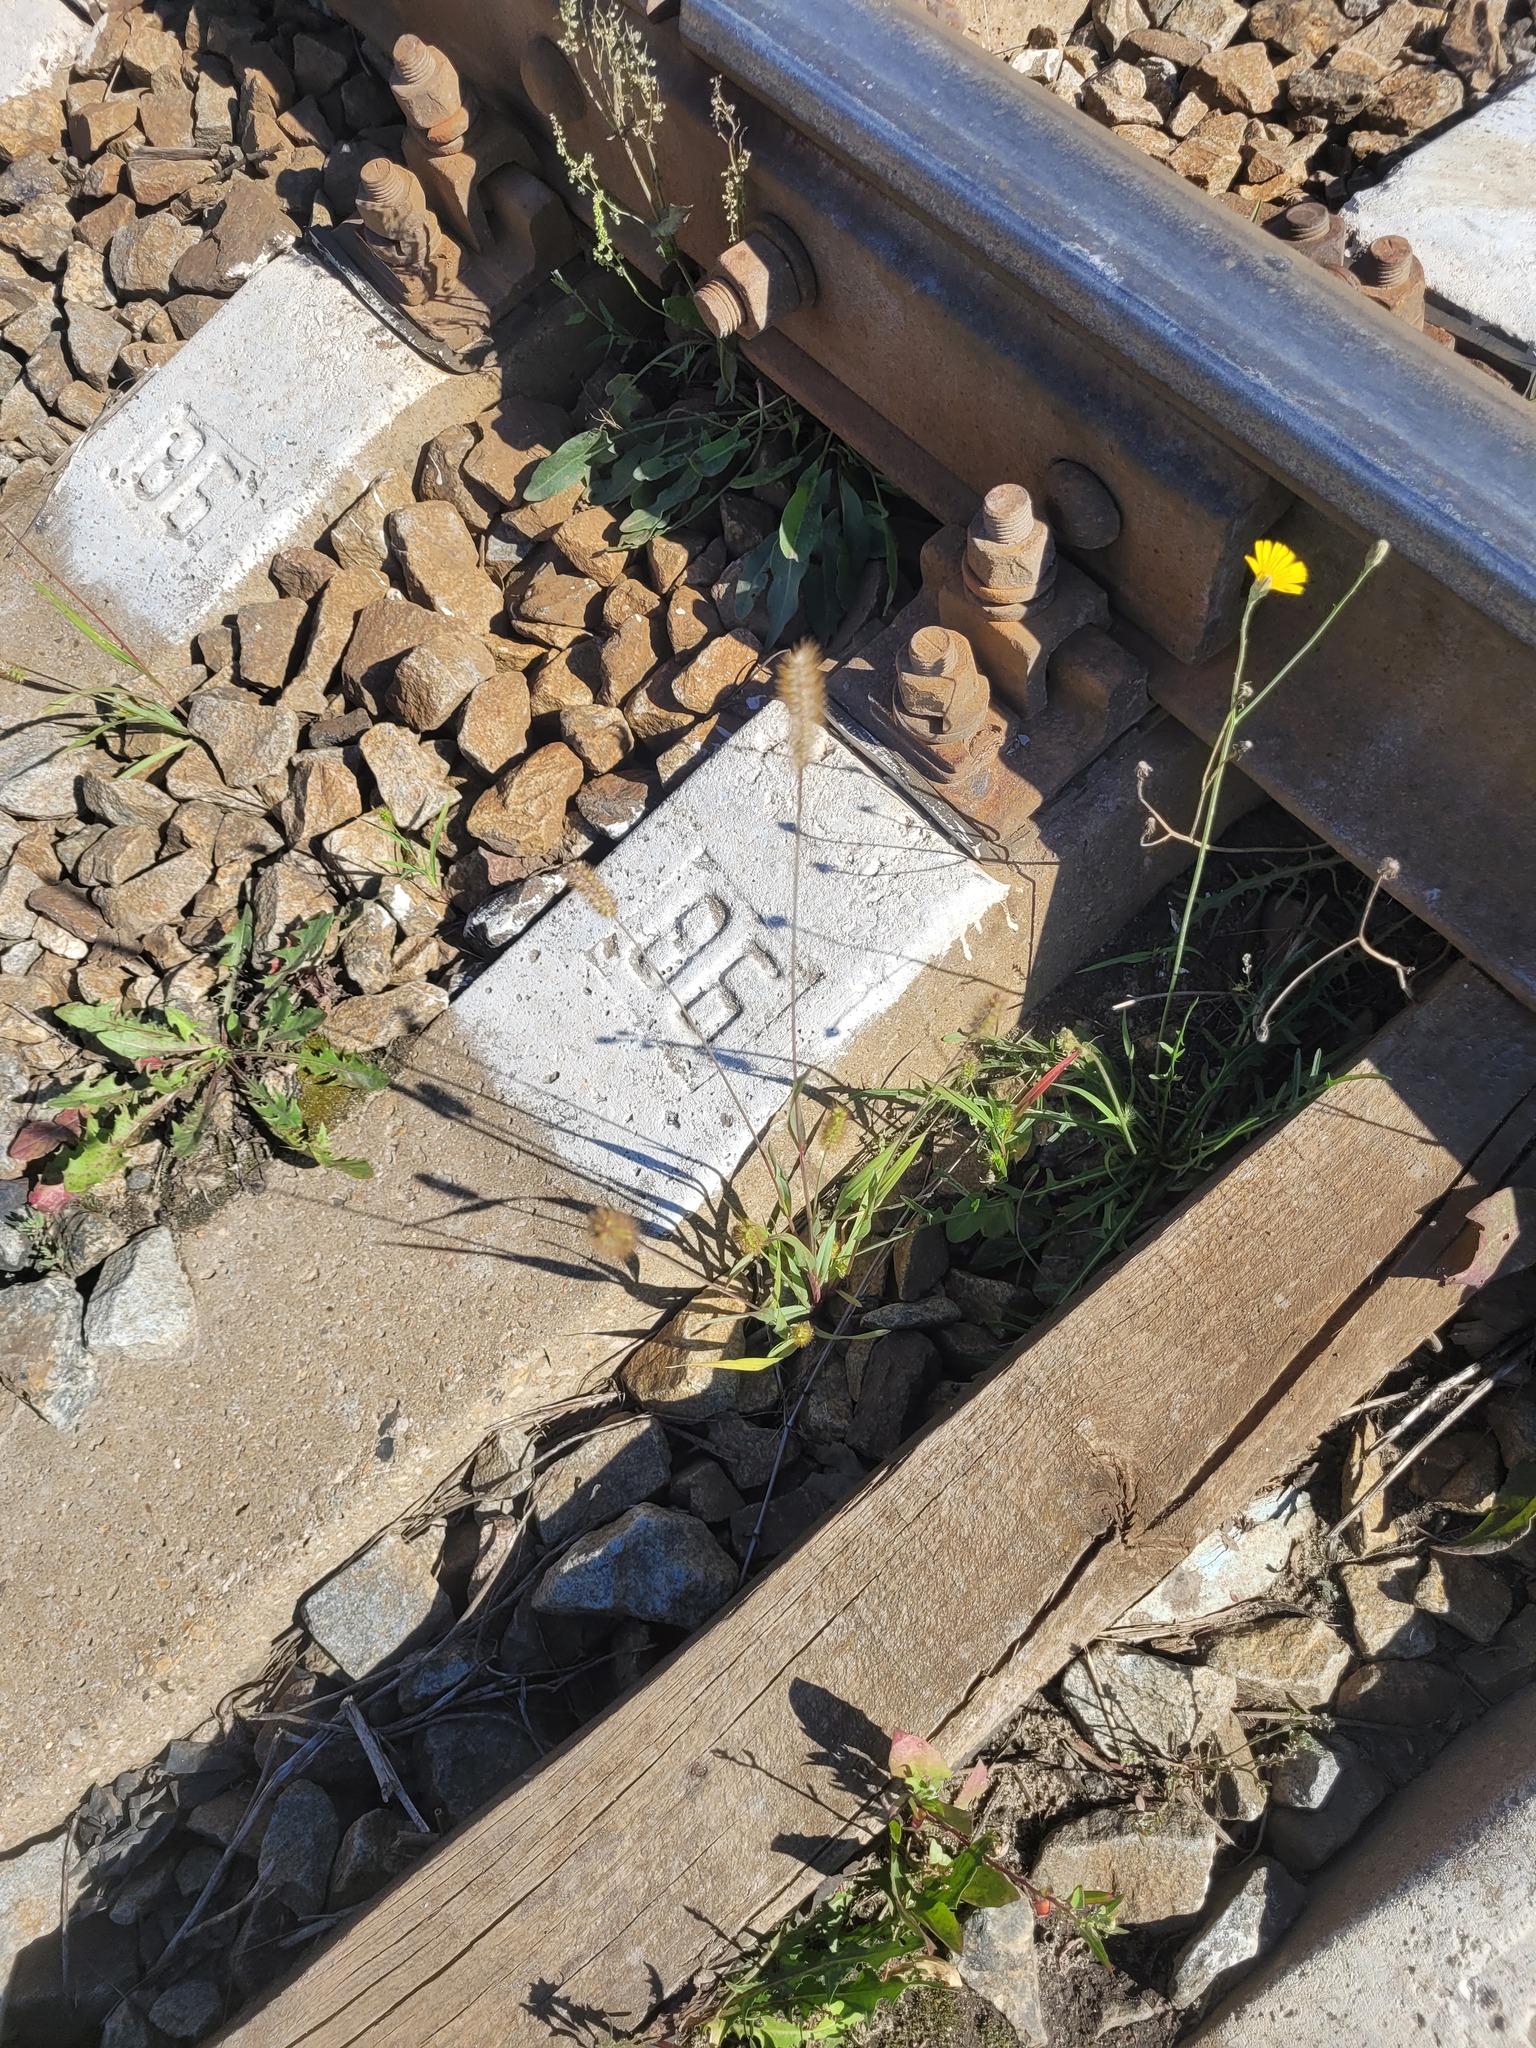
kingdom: Plantae
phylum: Tracheophyta
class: Liliopsida
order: Poales
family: Poaceae
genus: Setaria
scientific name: Setaria pumila
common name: Yellow bristle-grass
